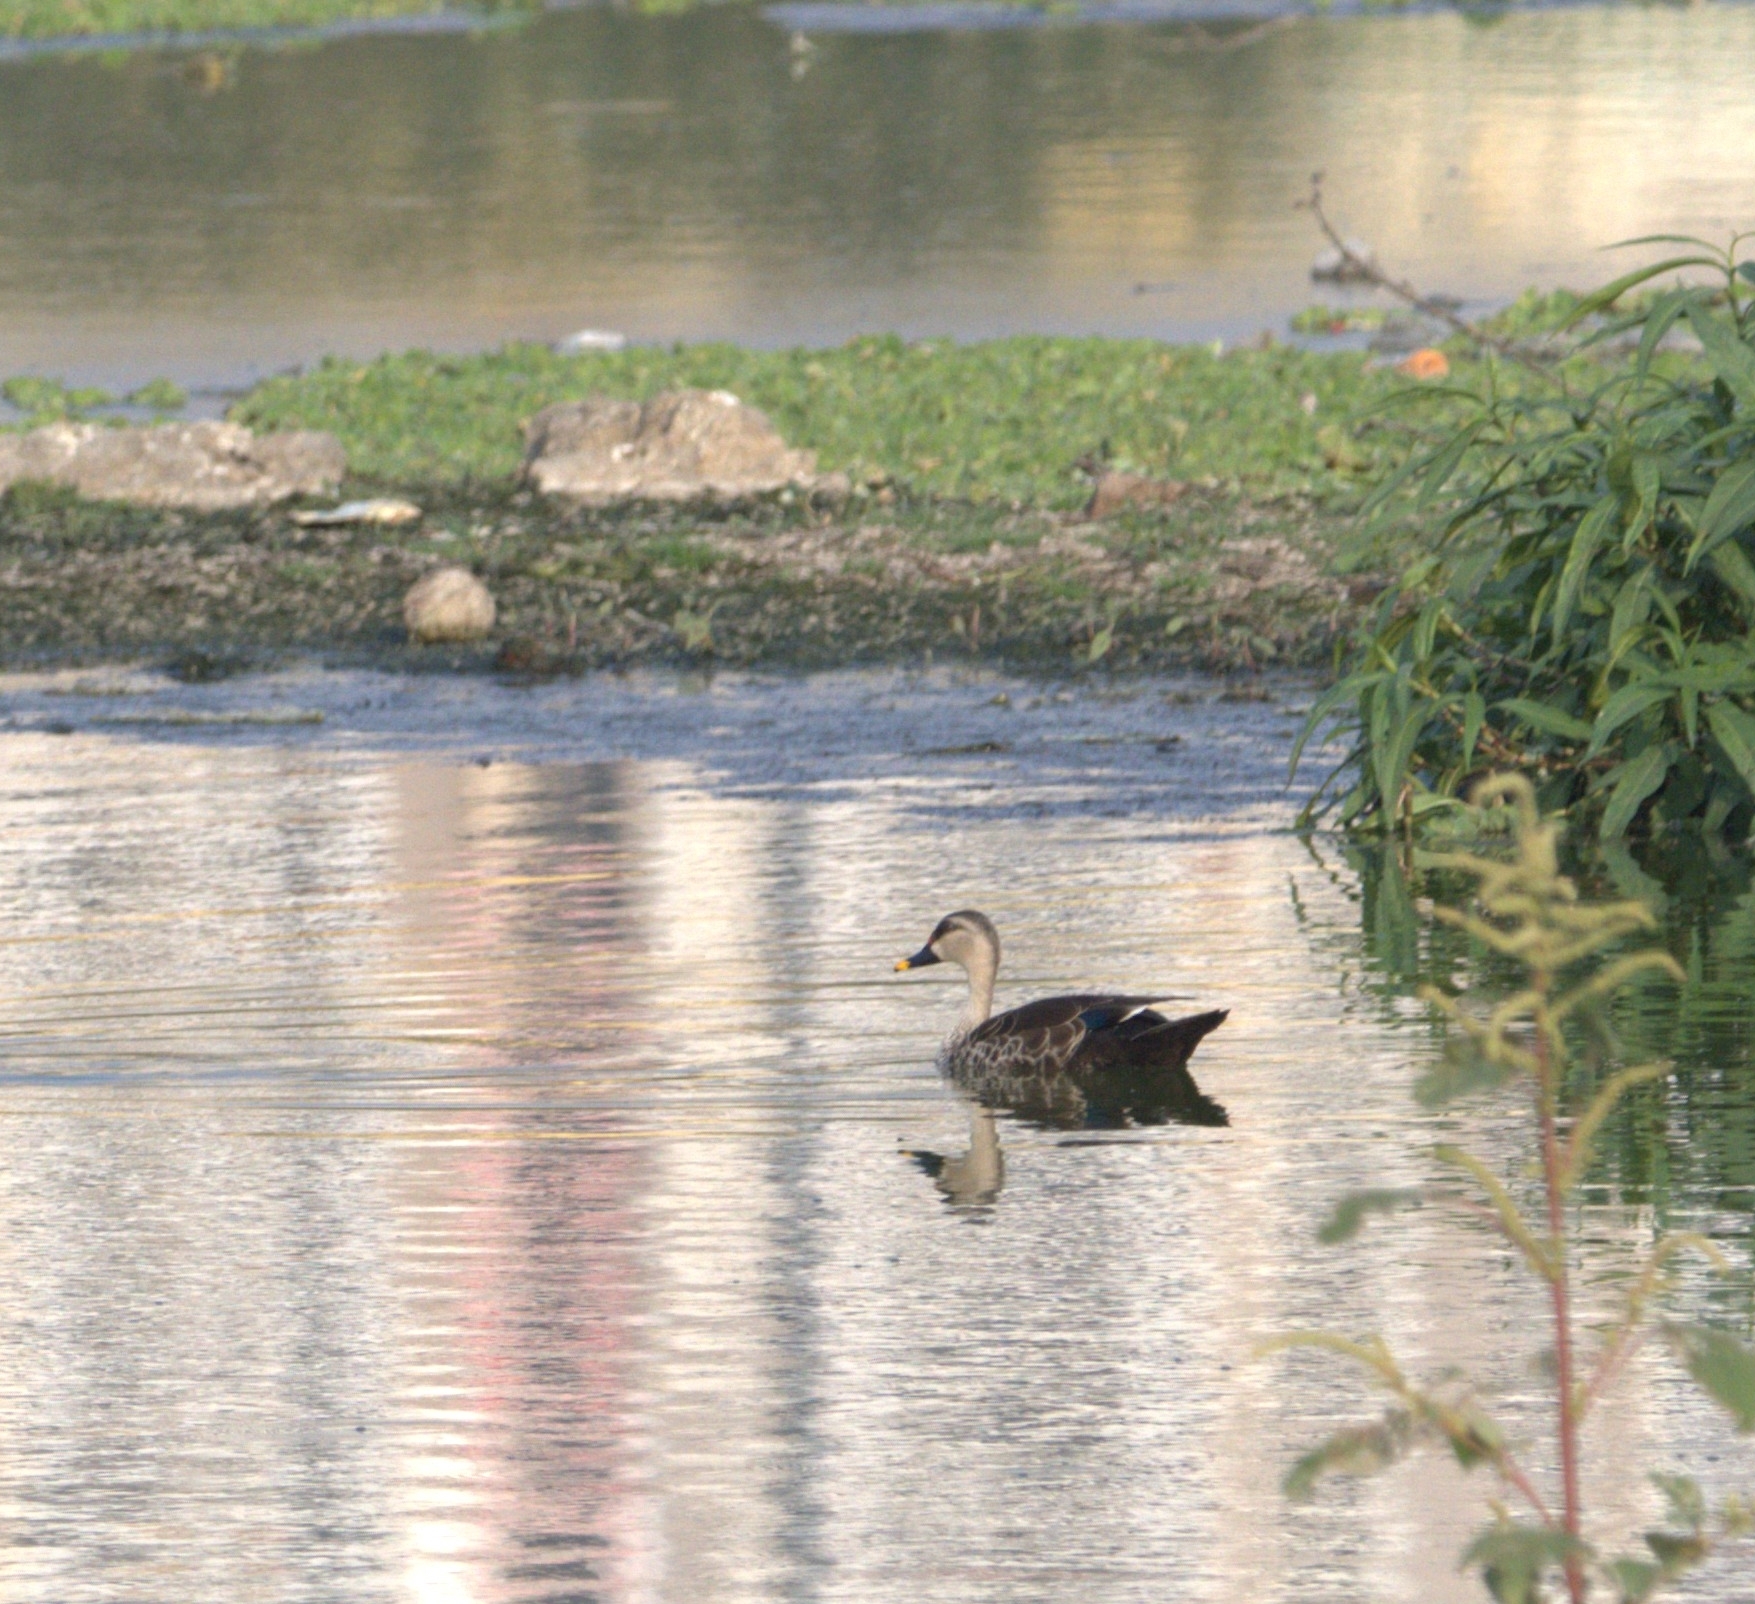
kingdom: Animalia
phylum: Chordata
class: Aves
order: Anseriformes
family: Anatidae
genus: Anas
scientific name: Anas poecilorhyncha
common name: Indian spot-billed duck
